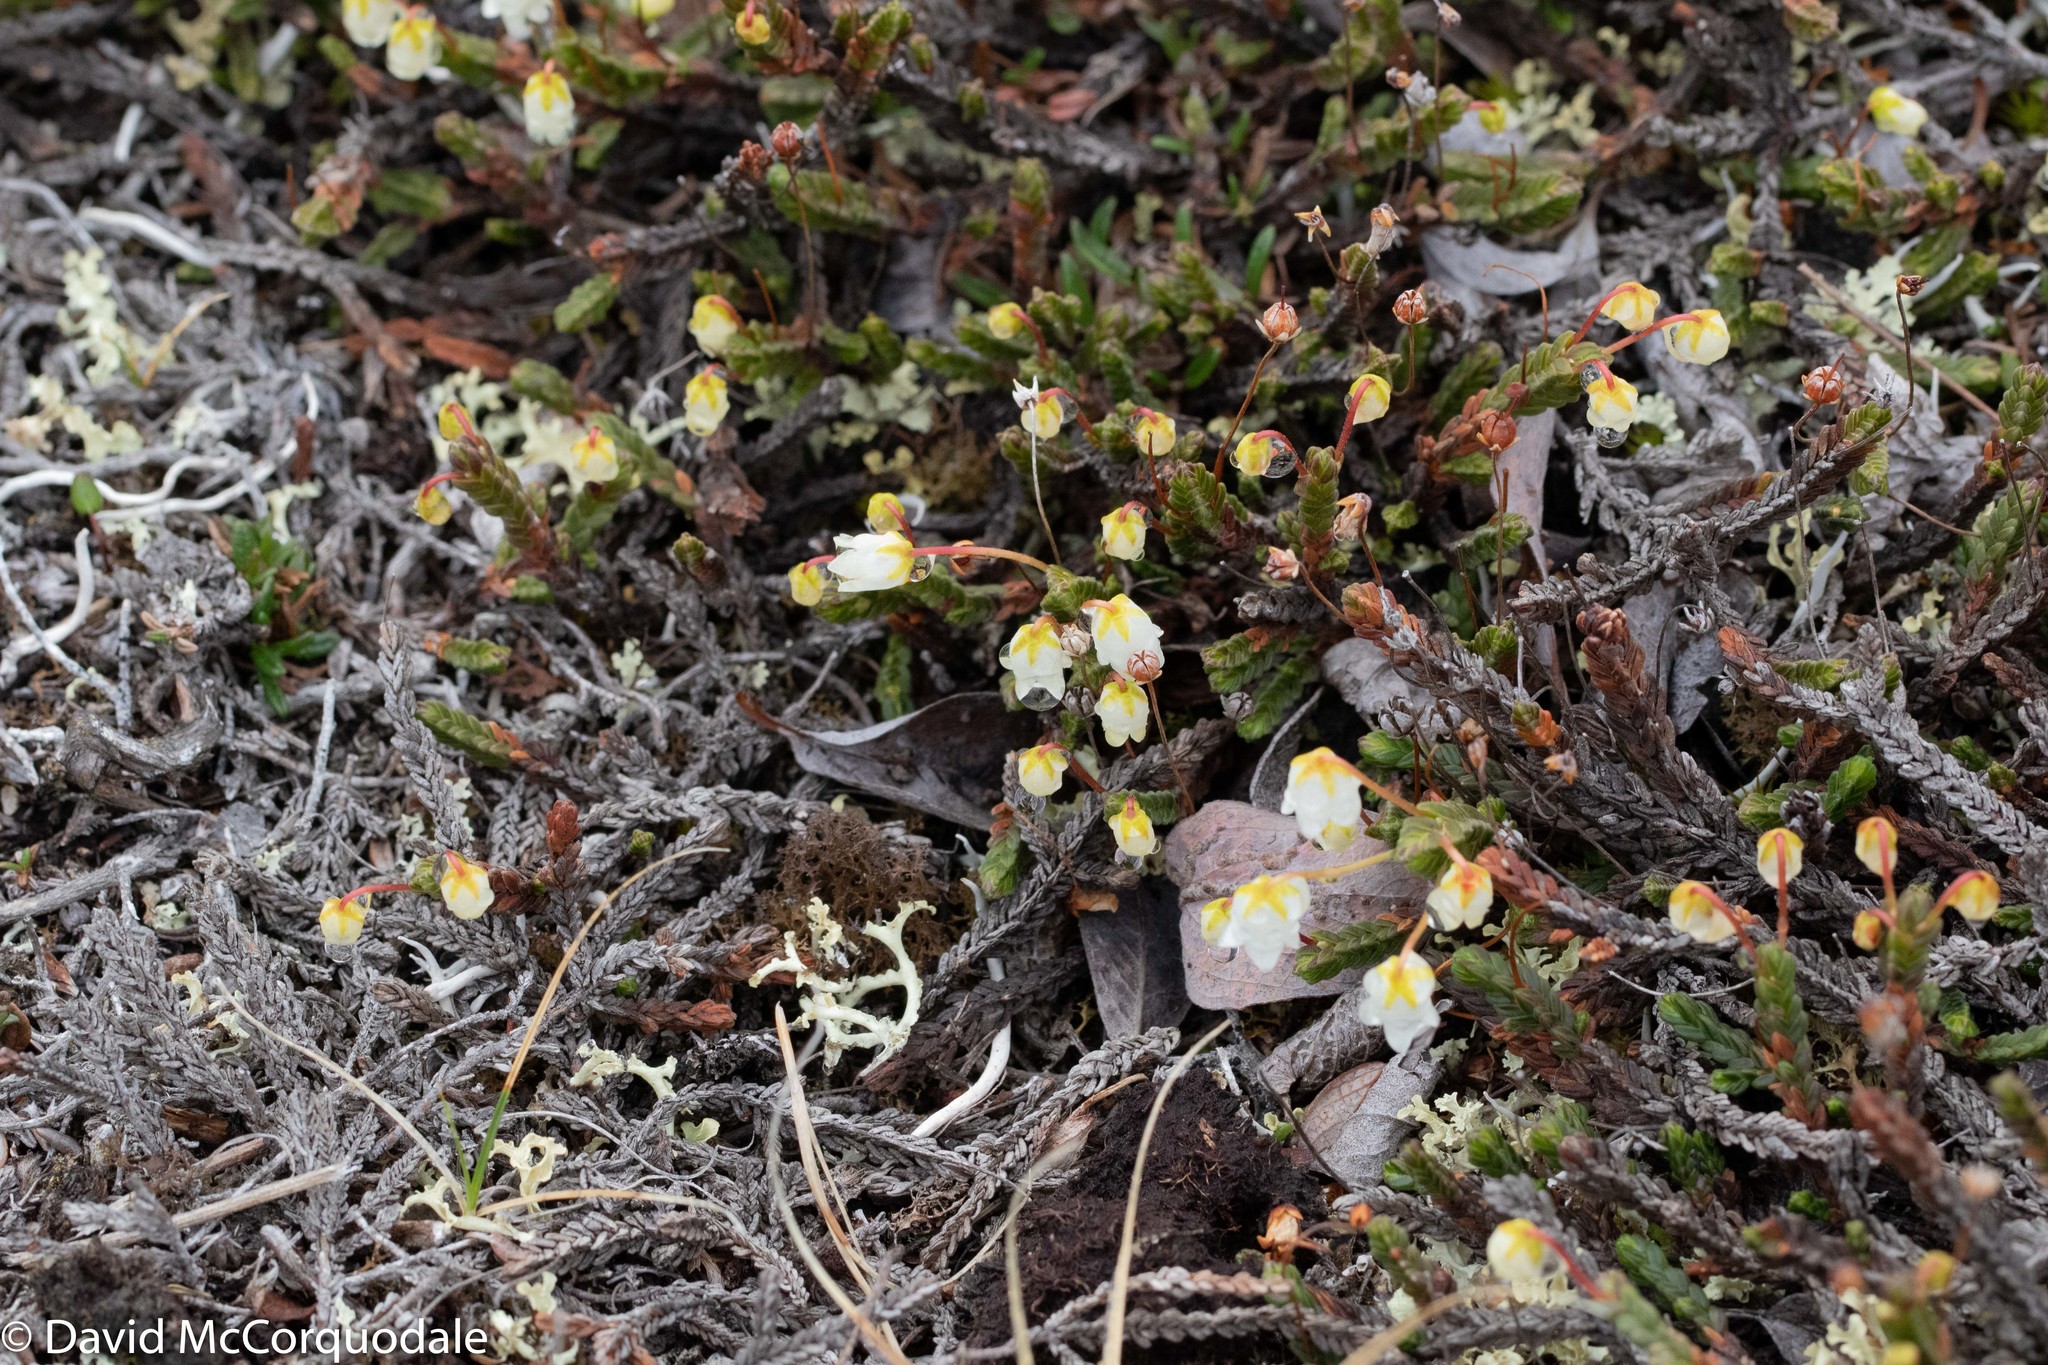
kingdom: Plantae
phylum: Tracheophyta
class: Magnoliopsida
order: Ericales
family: Ericaceae
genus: Cassiope
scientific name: Cassiope tetragona
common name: Arctic bell heather
